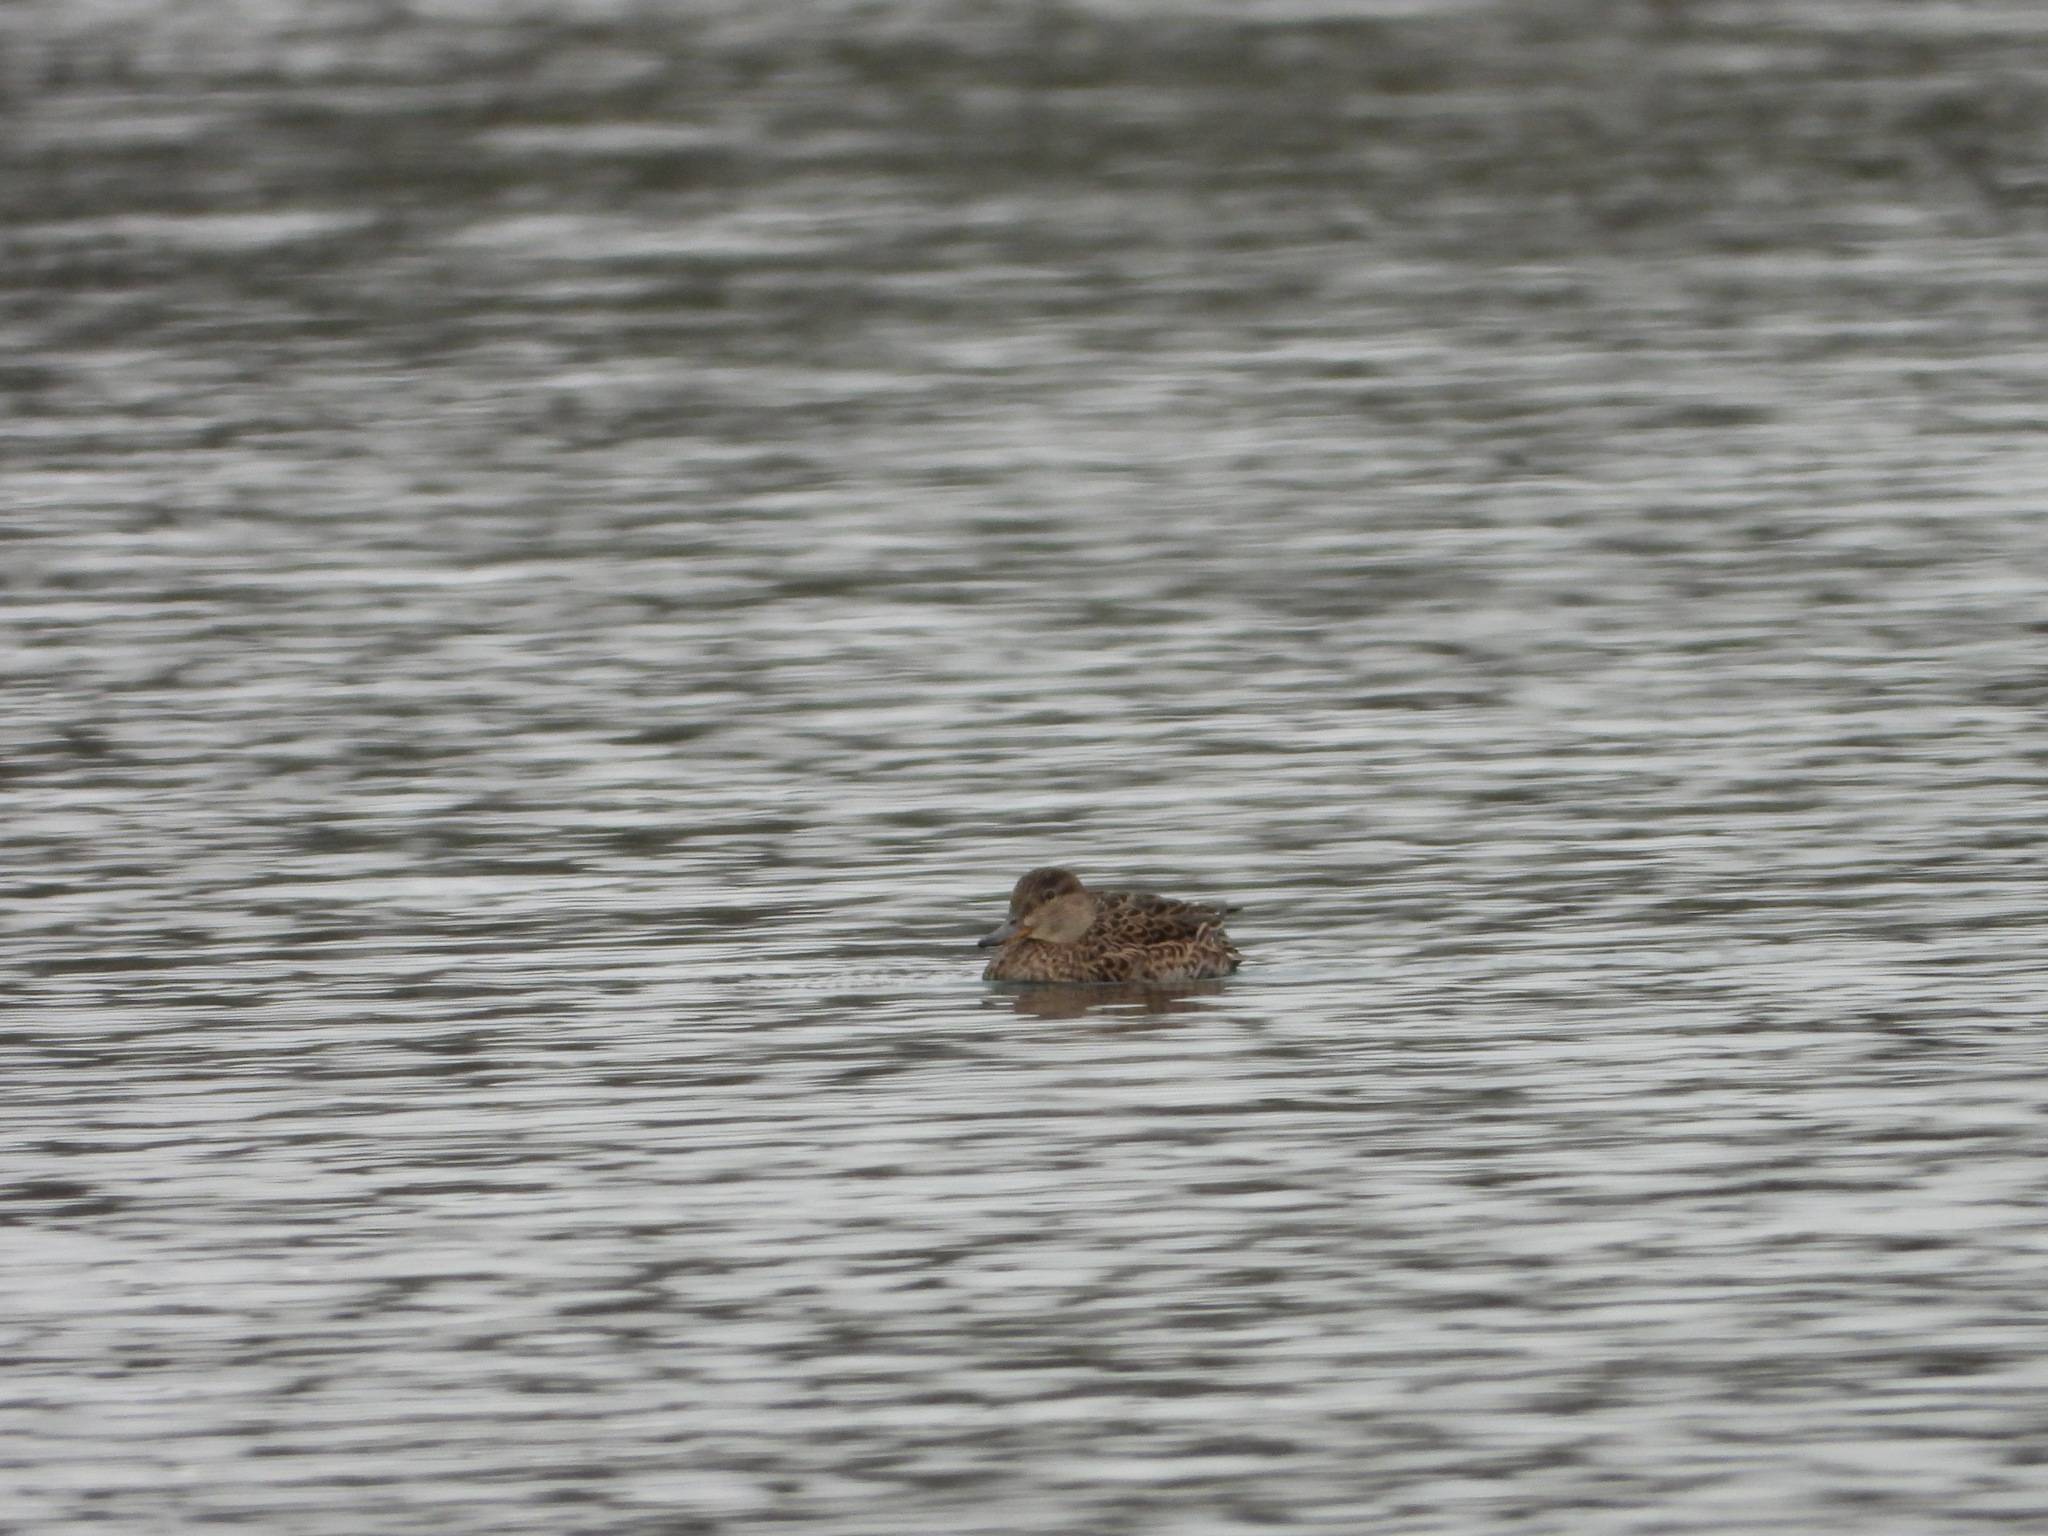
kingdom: Animalia
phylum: Chordata
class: Aves
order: Anseriformes
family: Anatidae
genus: Anas
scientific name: Anas crecca
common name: Eurasian teal
